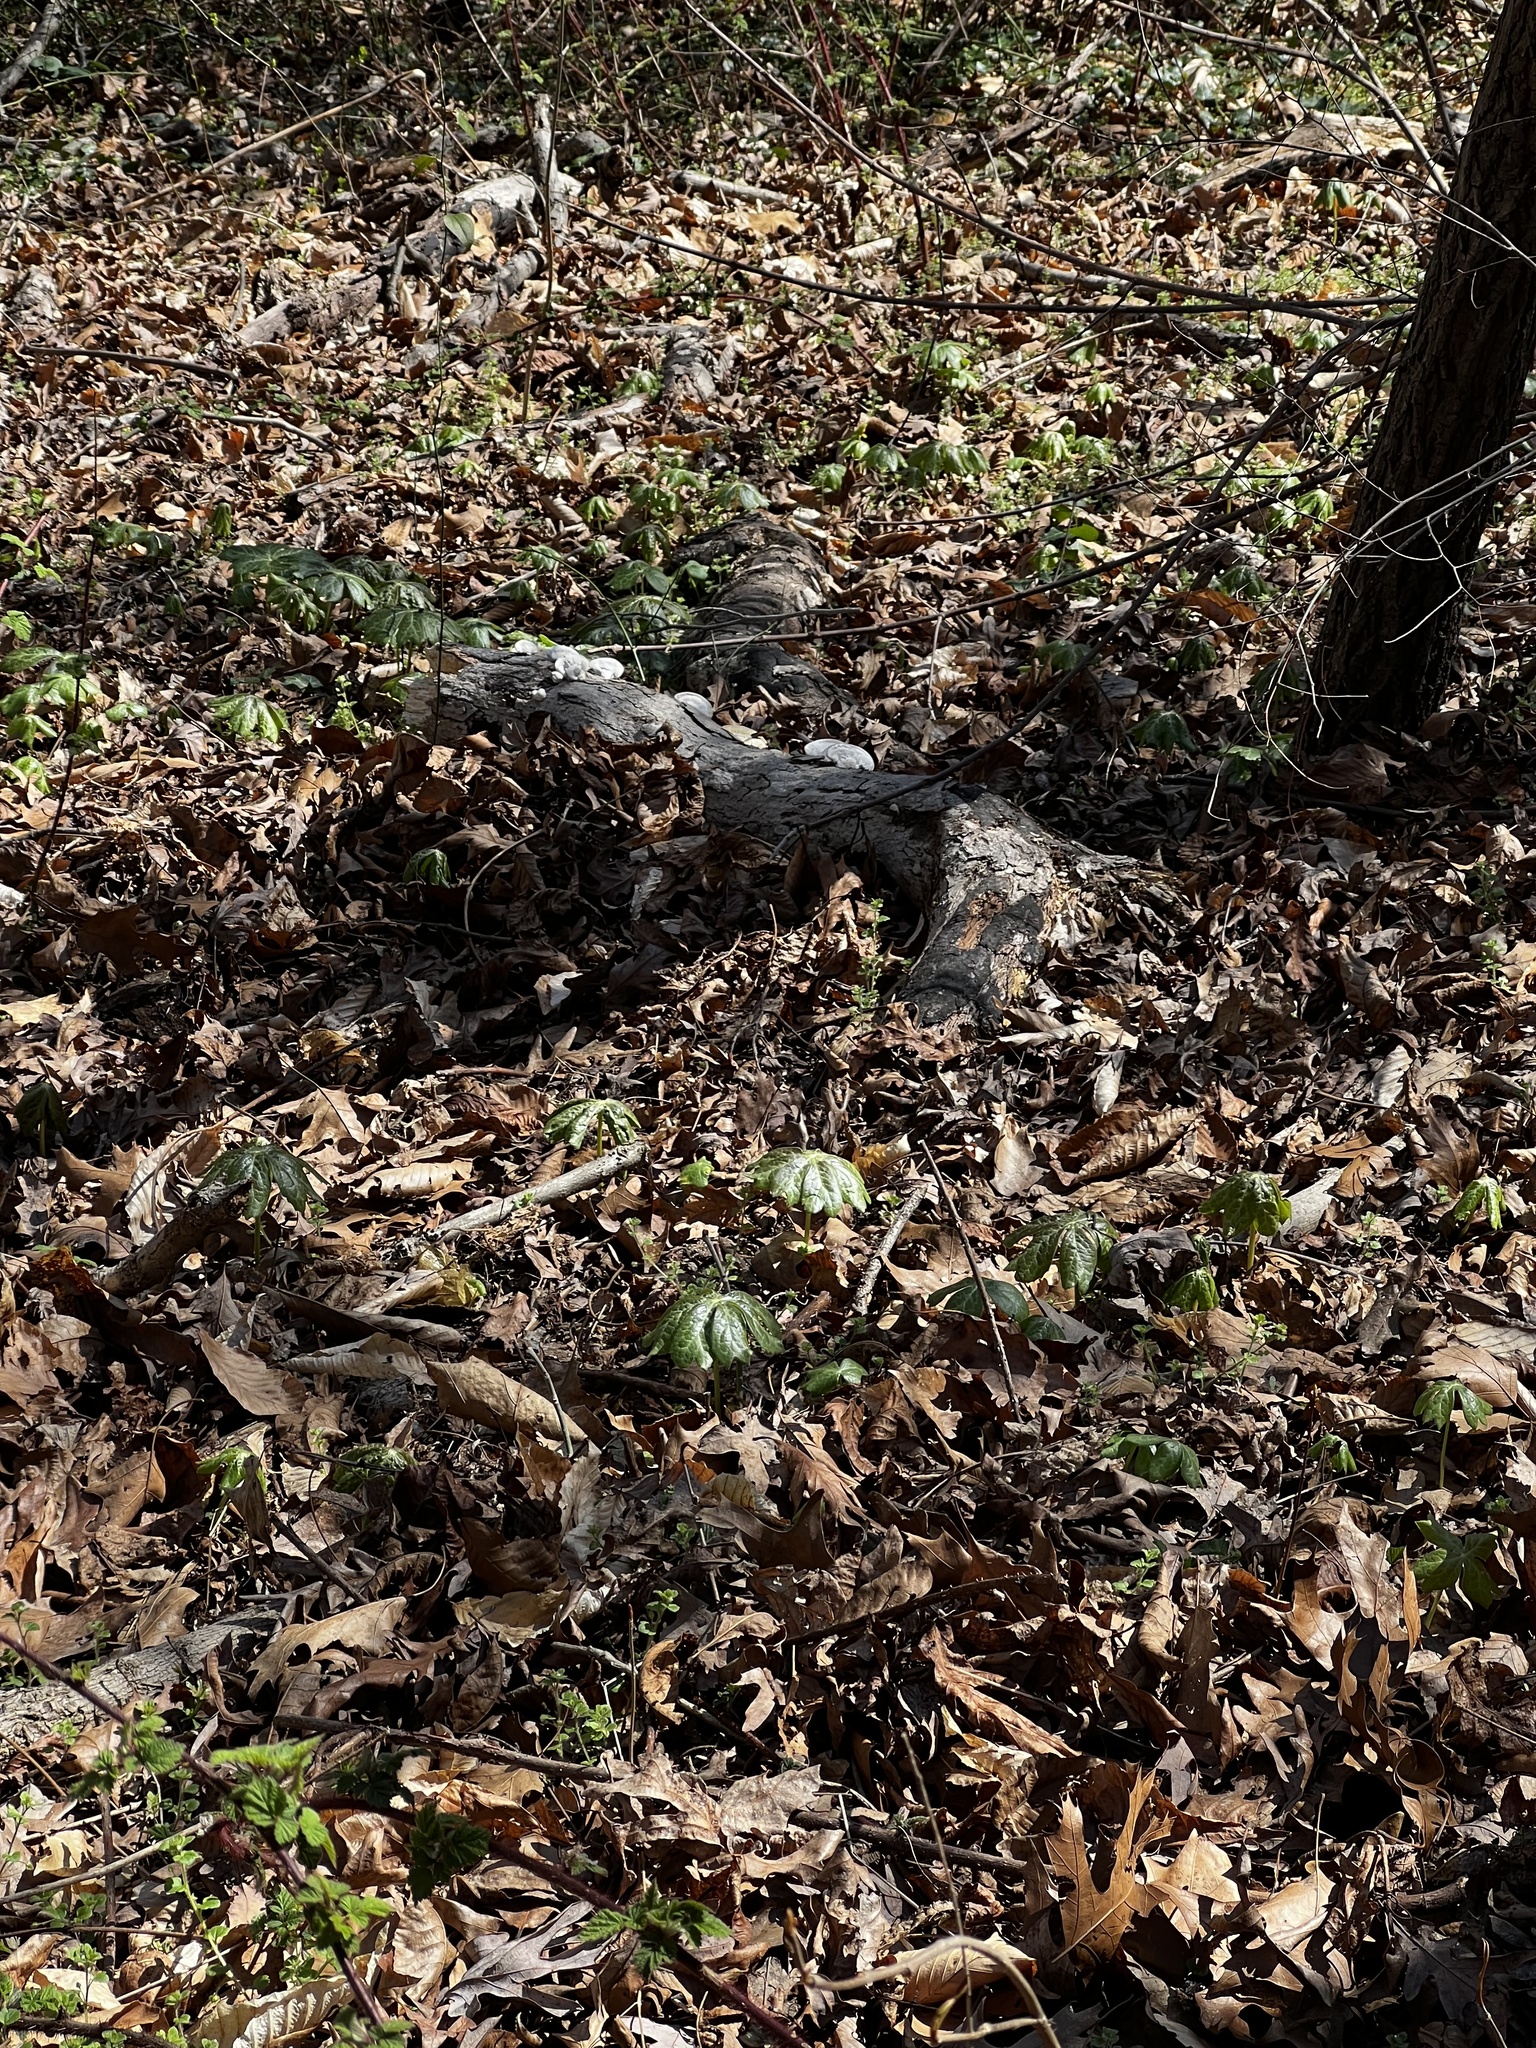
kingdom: Plantae
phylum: Tracheophyta
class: Magnoliopsida
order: Ranunculales
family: Berberidaceae
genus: Podophyllum
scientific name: Podophyllum peltatum
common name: Wild mandrake
